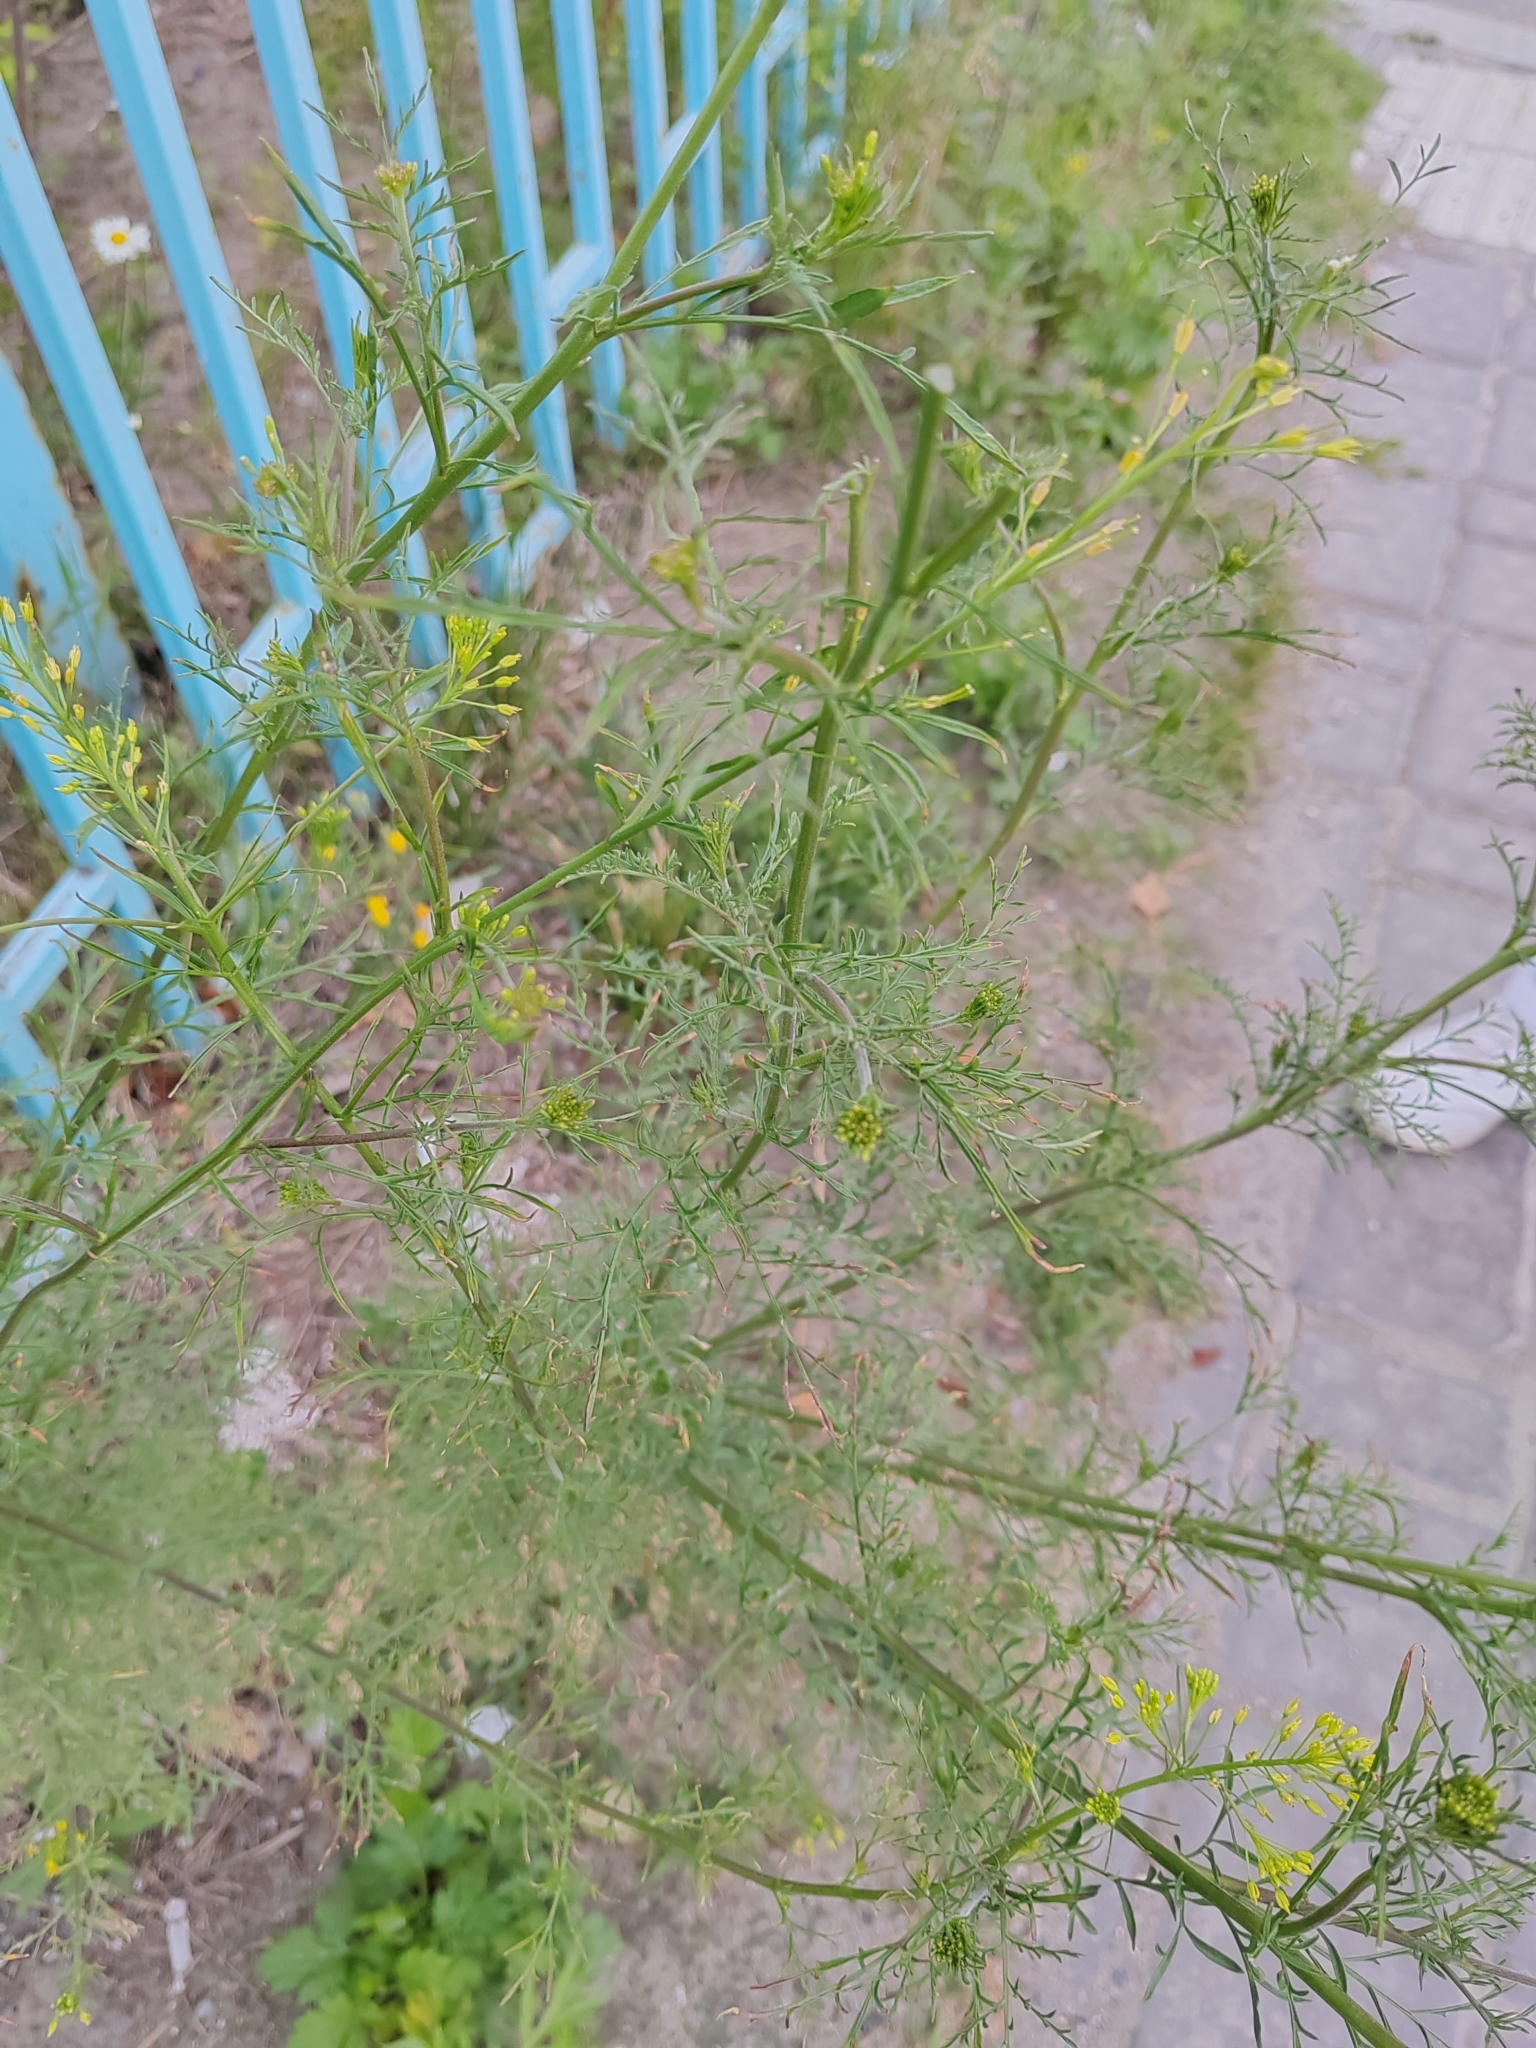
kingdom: Plantae
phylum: Tracheophyta
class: Magnoliopsida
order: Brassicales
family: Brassicaceae
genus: Descurainia
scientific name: Descurainia sophia
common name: Flixweed
